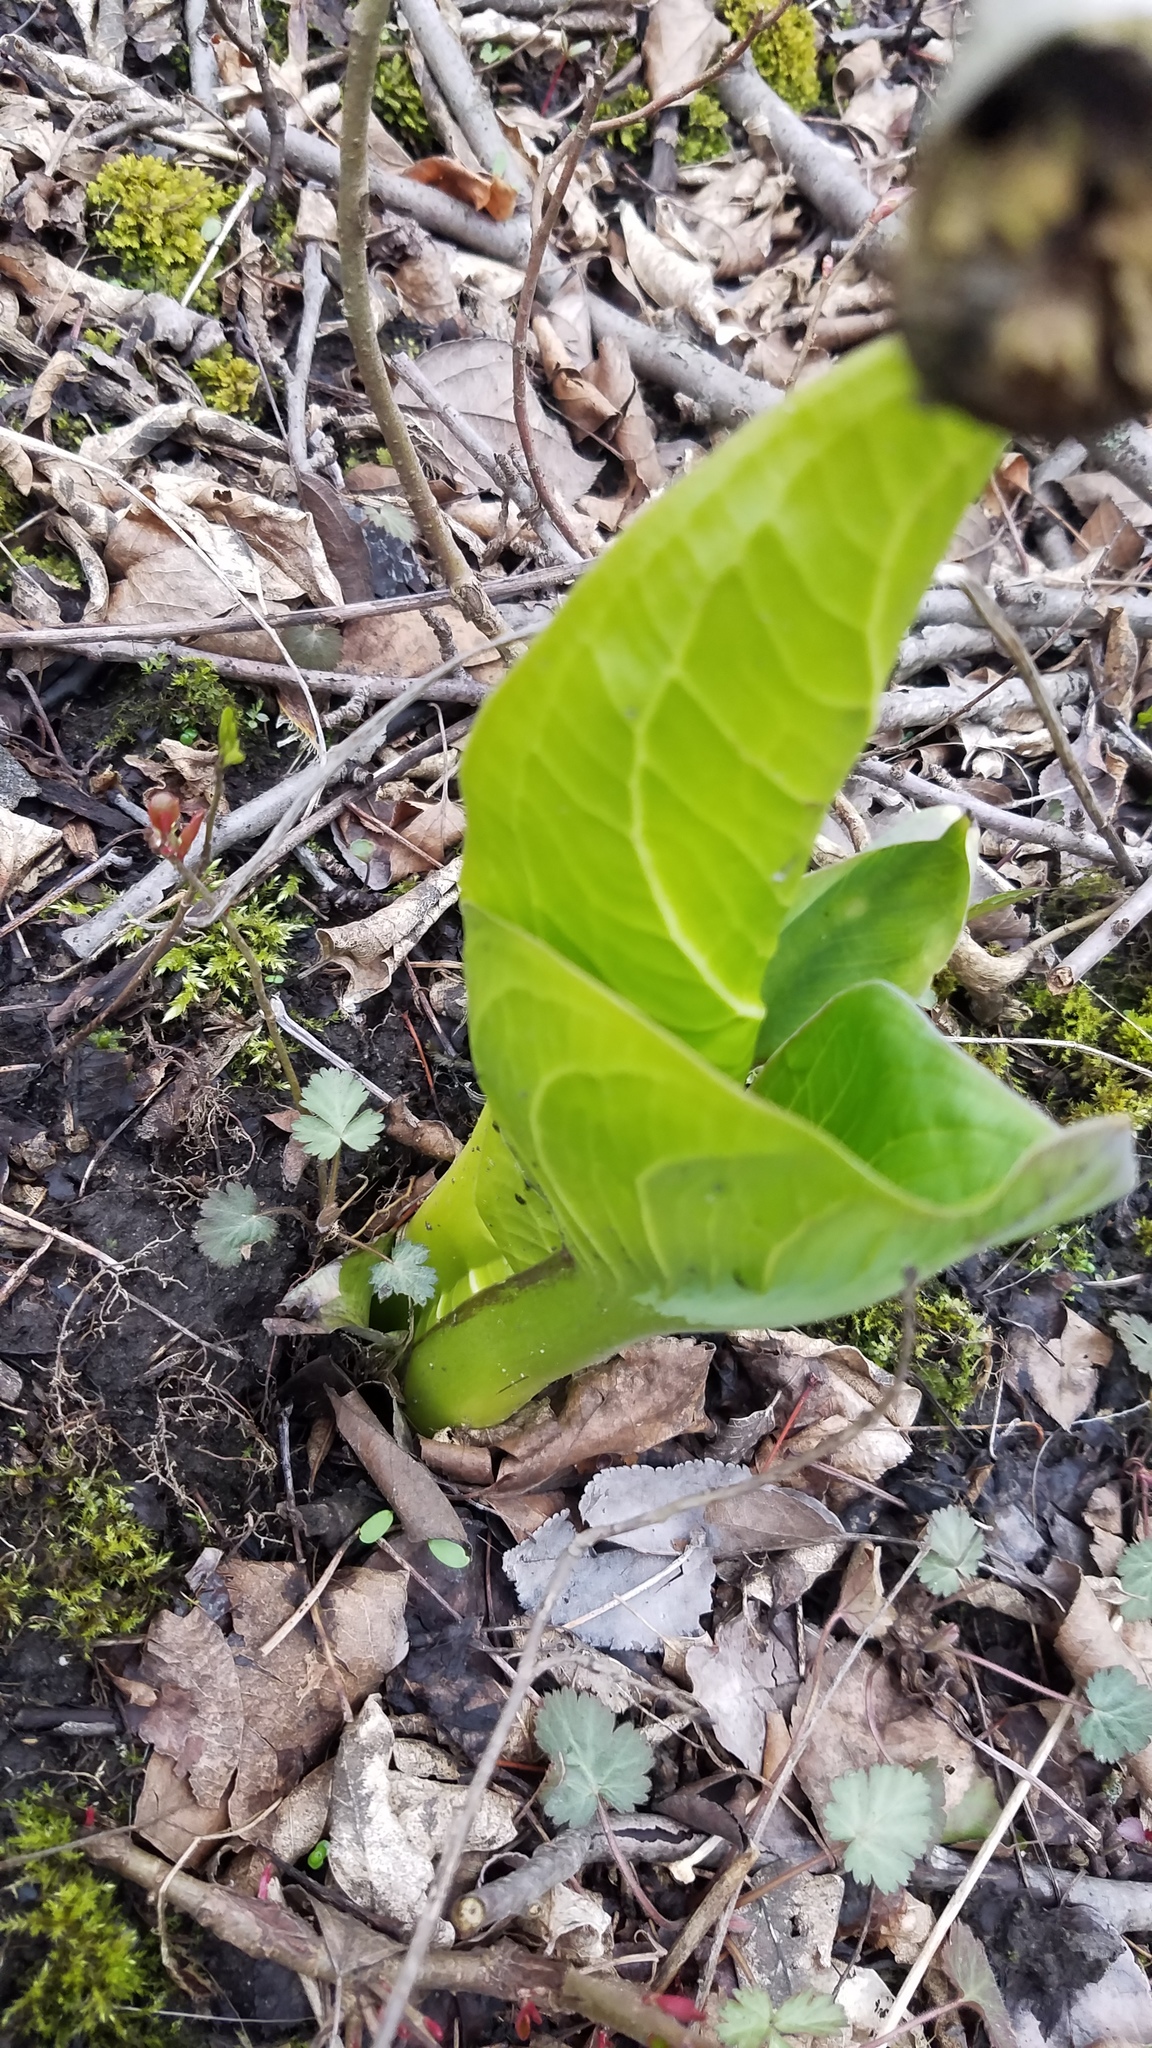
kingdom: Plantae
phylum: Tracheophyta
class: Liliopsida
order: Alismatales
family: Araceae
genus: Symplocarpus
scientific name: Symplocarpus foetidus
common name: Eastern skunk cabbage
